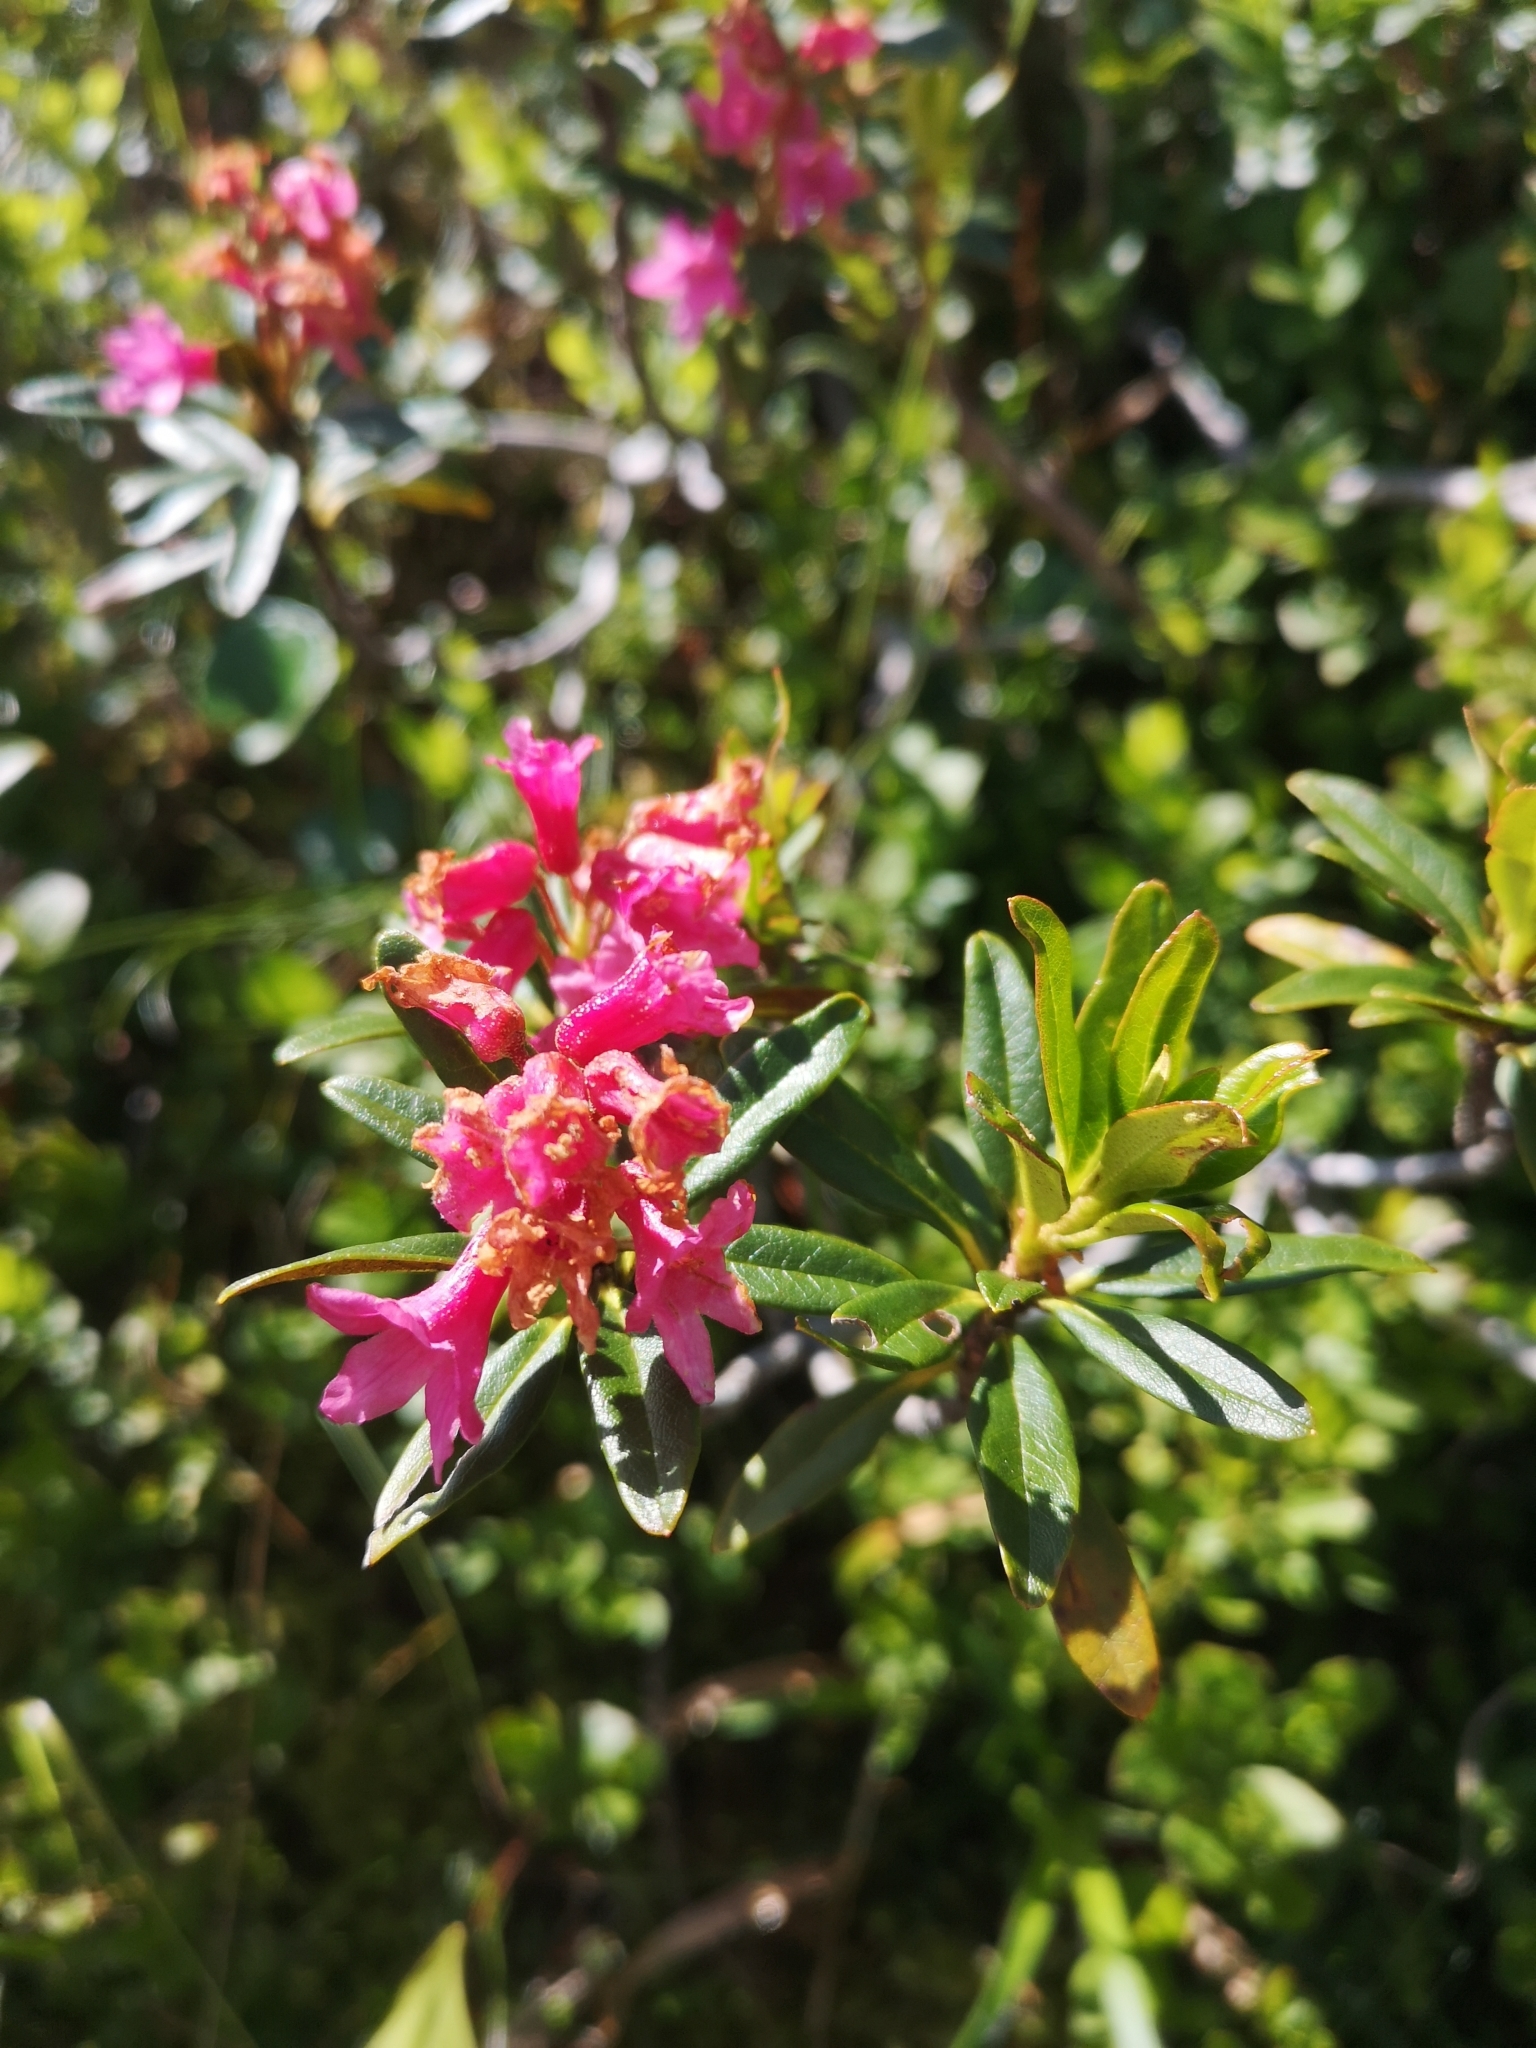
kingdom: Plantae
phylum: Tracheophyta
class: Magnoliopsida
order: Ericales
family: Ericaceae
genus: Rhododendron
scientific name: Rhododendron ferrugineum
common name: Alpenrose
